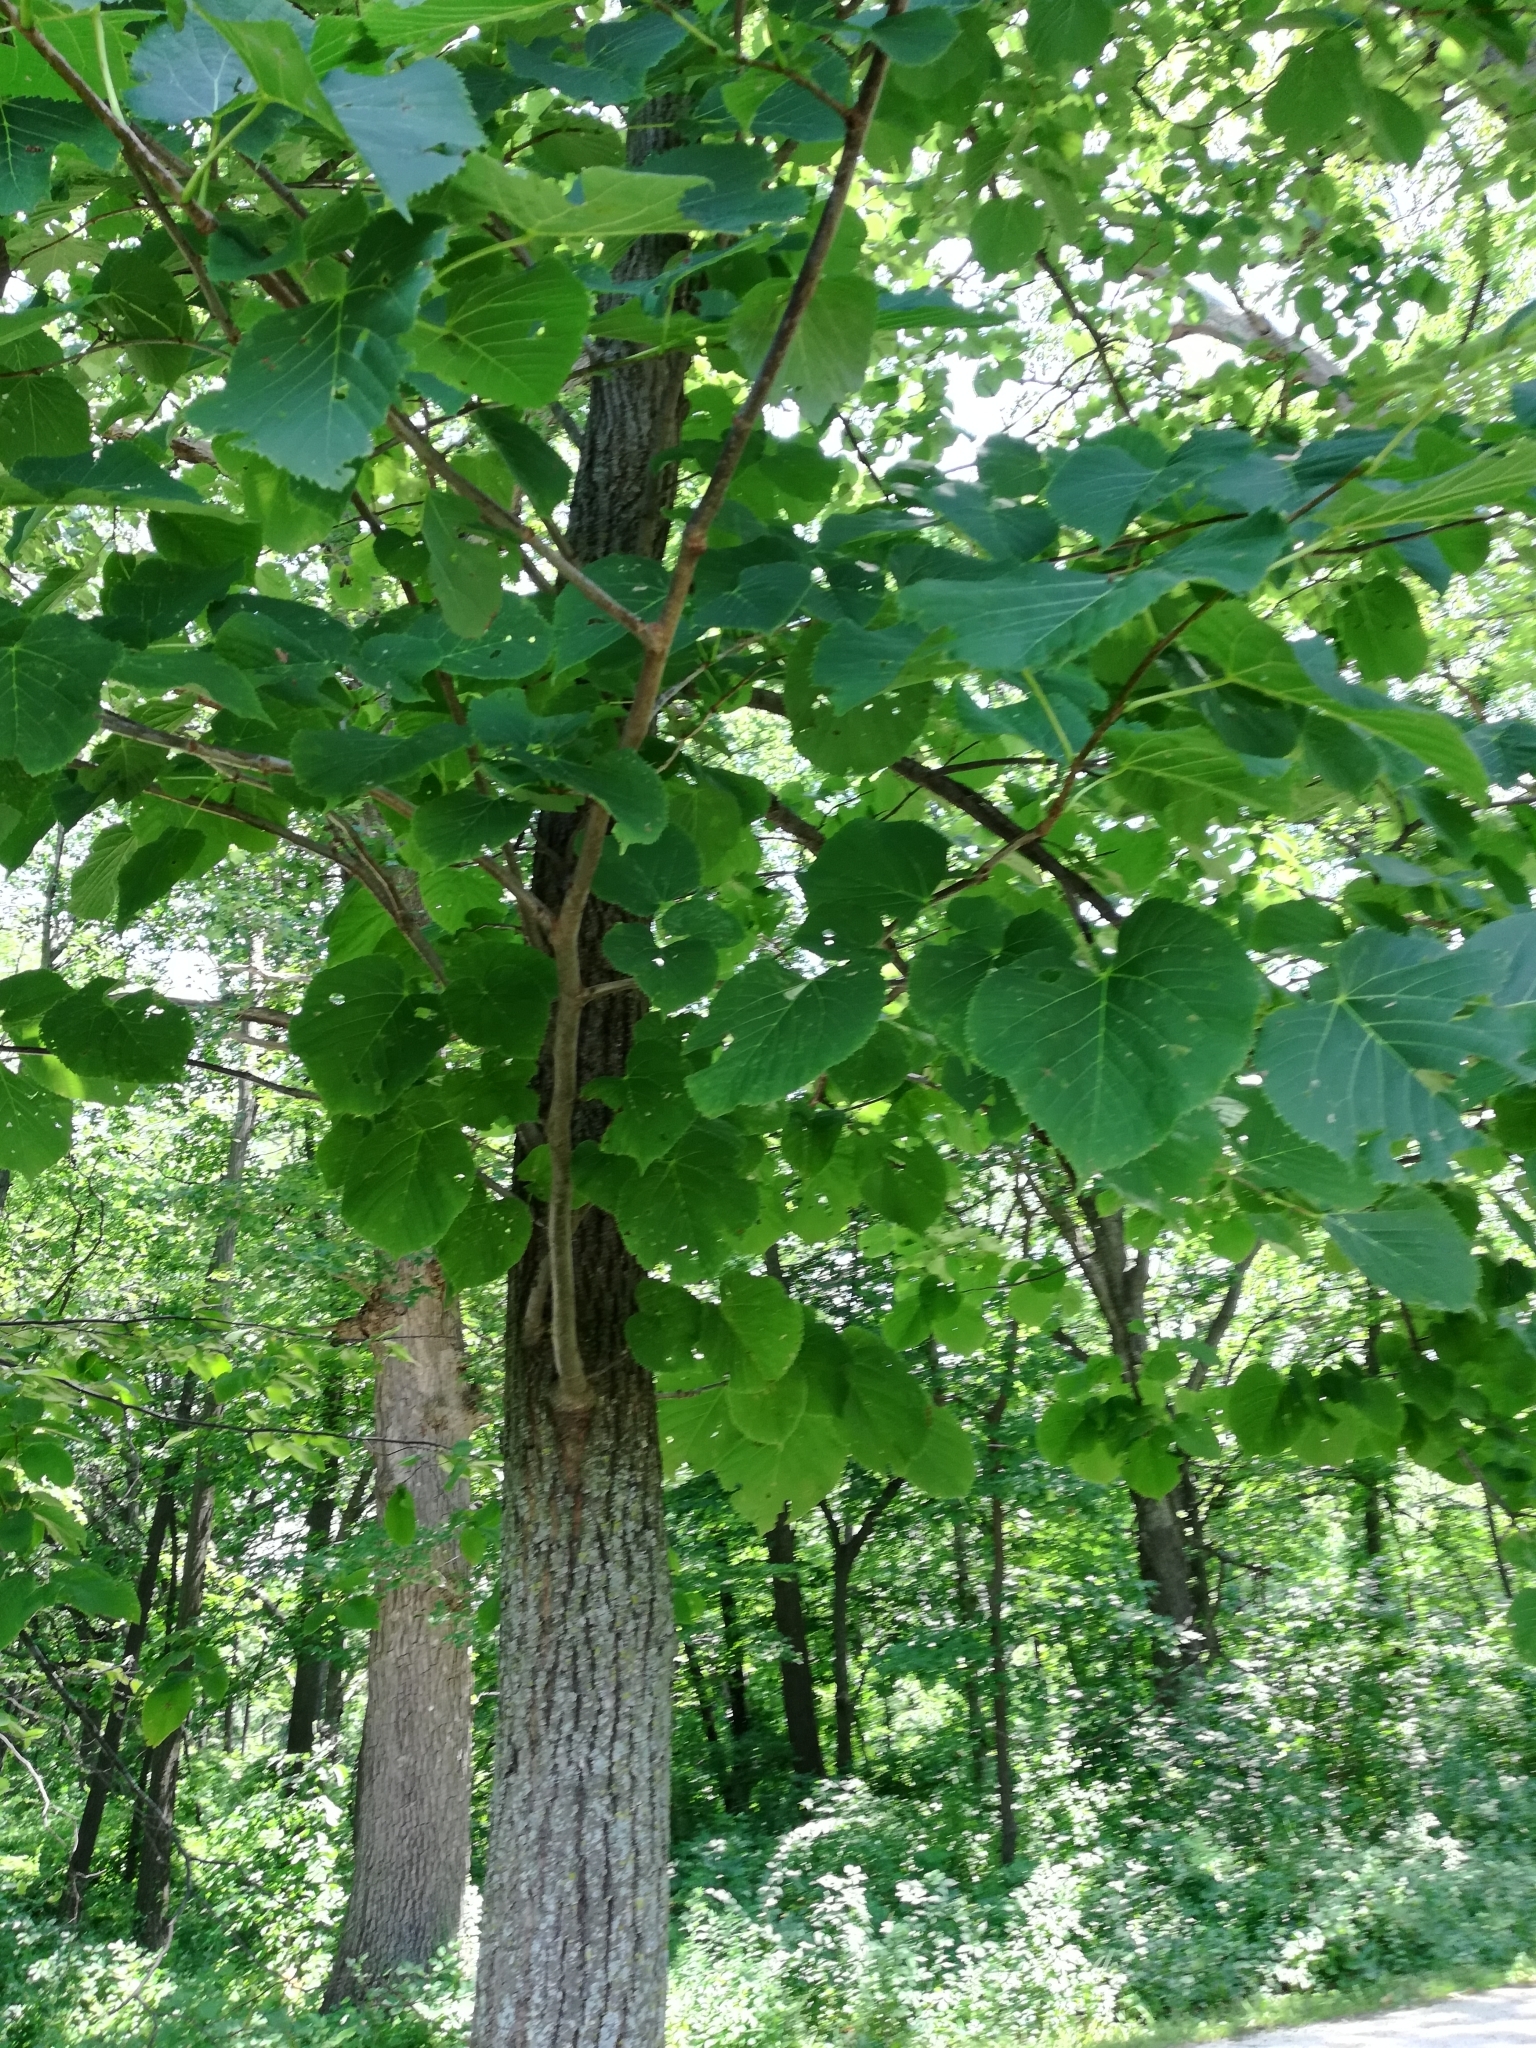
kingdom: Plantae
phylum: Tracheophyta
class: Magnoliopsida
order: Malvales
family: Malvaceae
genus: Tilia
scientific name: Tilia americana
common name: Basswood
